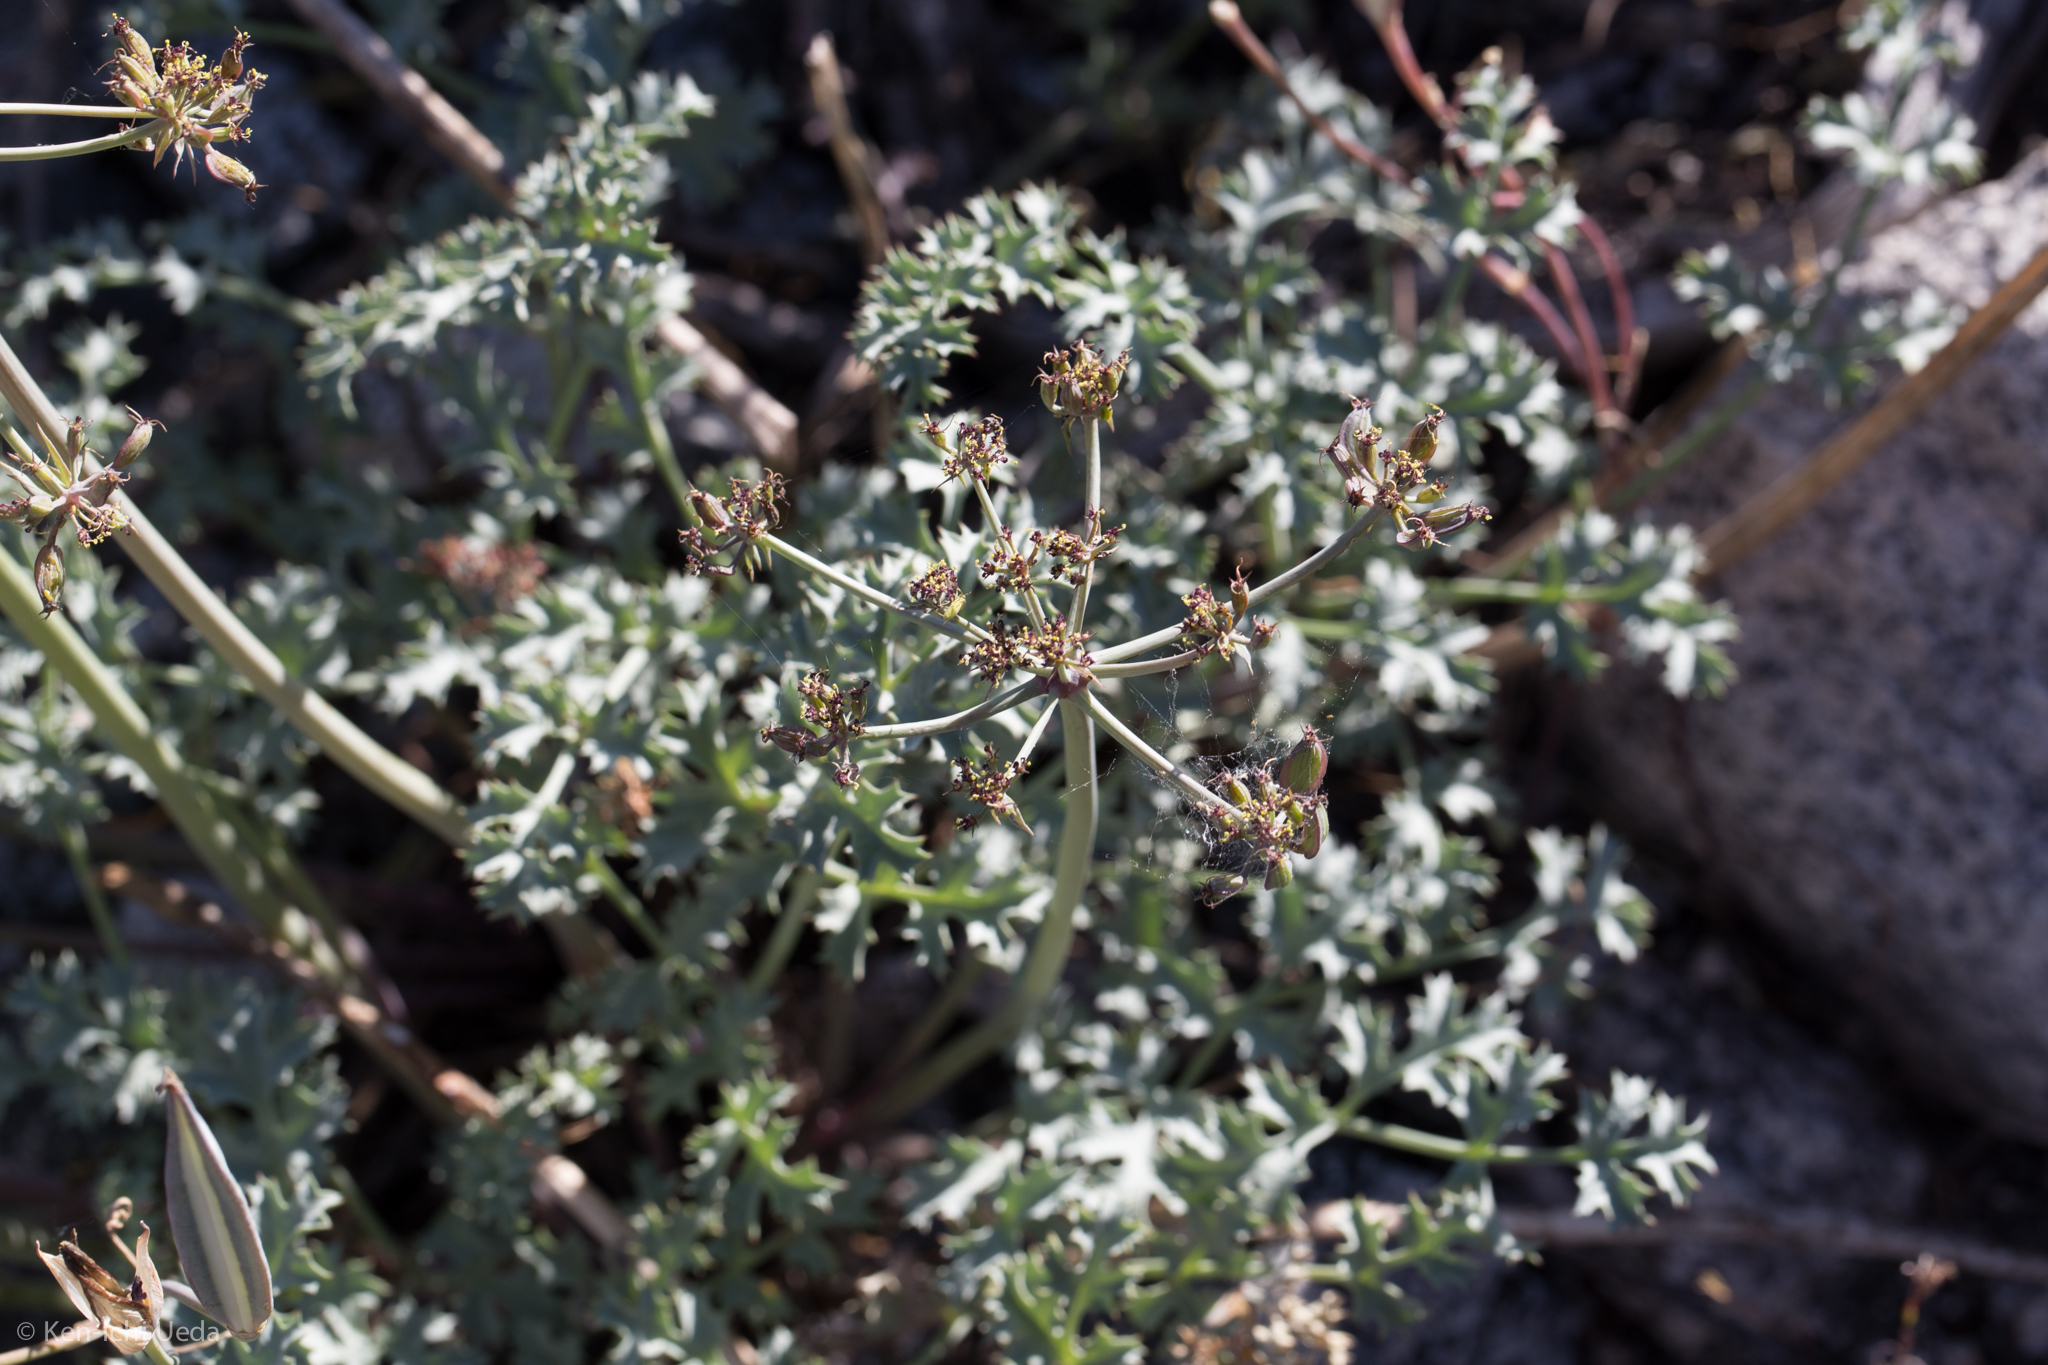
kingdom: Plantae
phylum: Tracheophyta
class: Magnoliopsida
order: Apiales
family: Apiaceae
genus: Lomatium
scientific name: Lomatium rigidum
